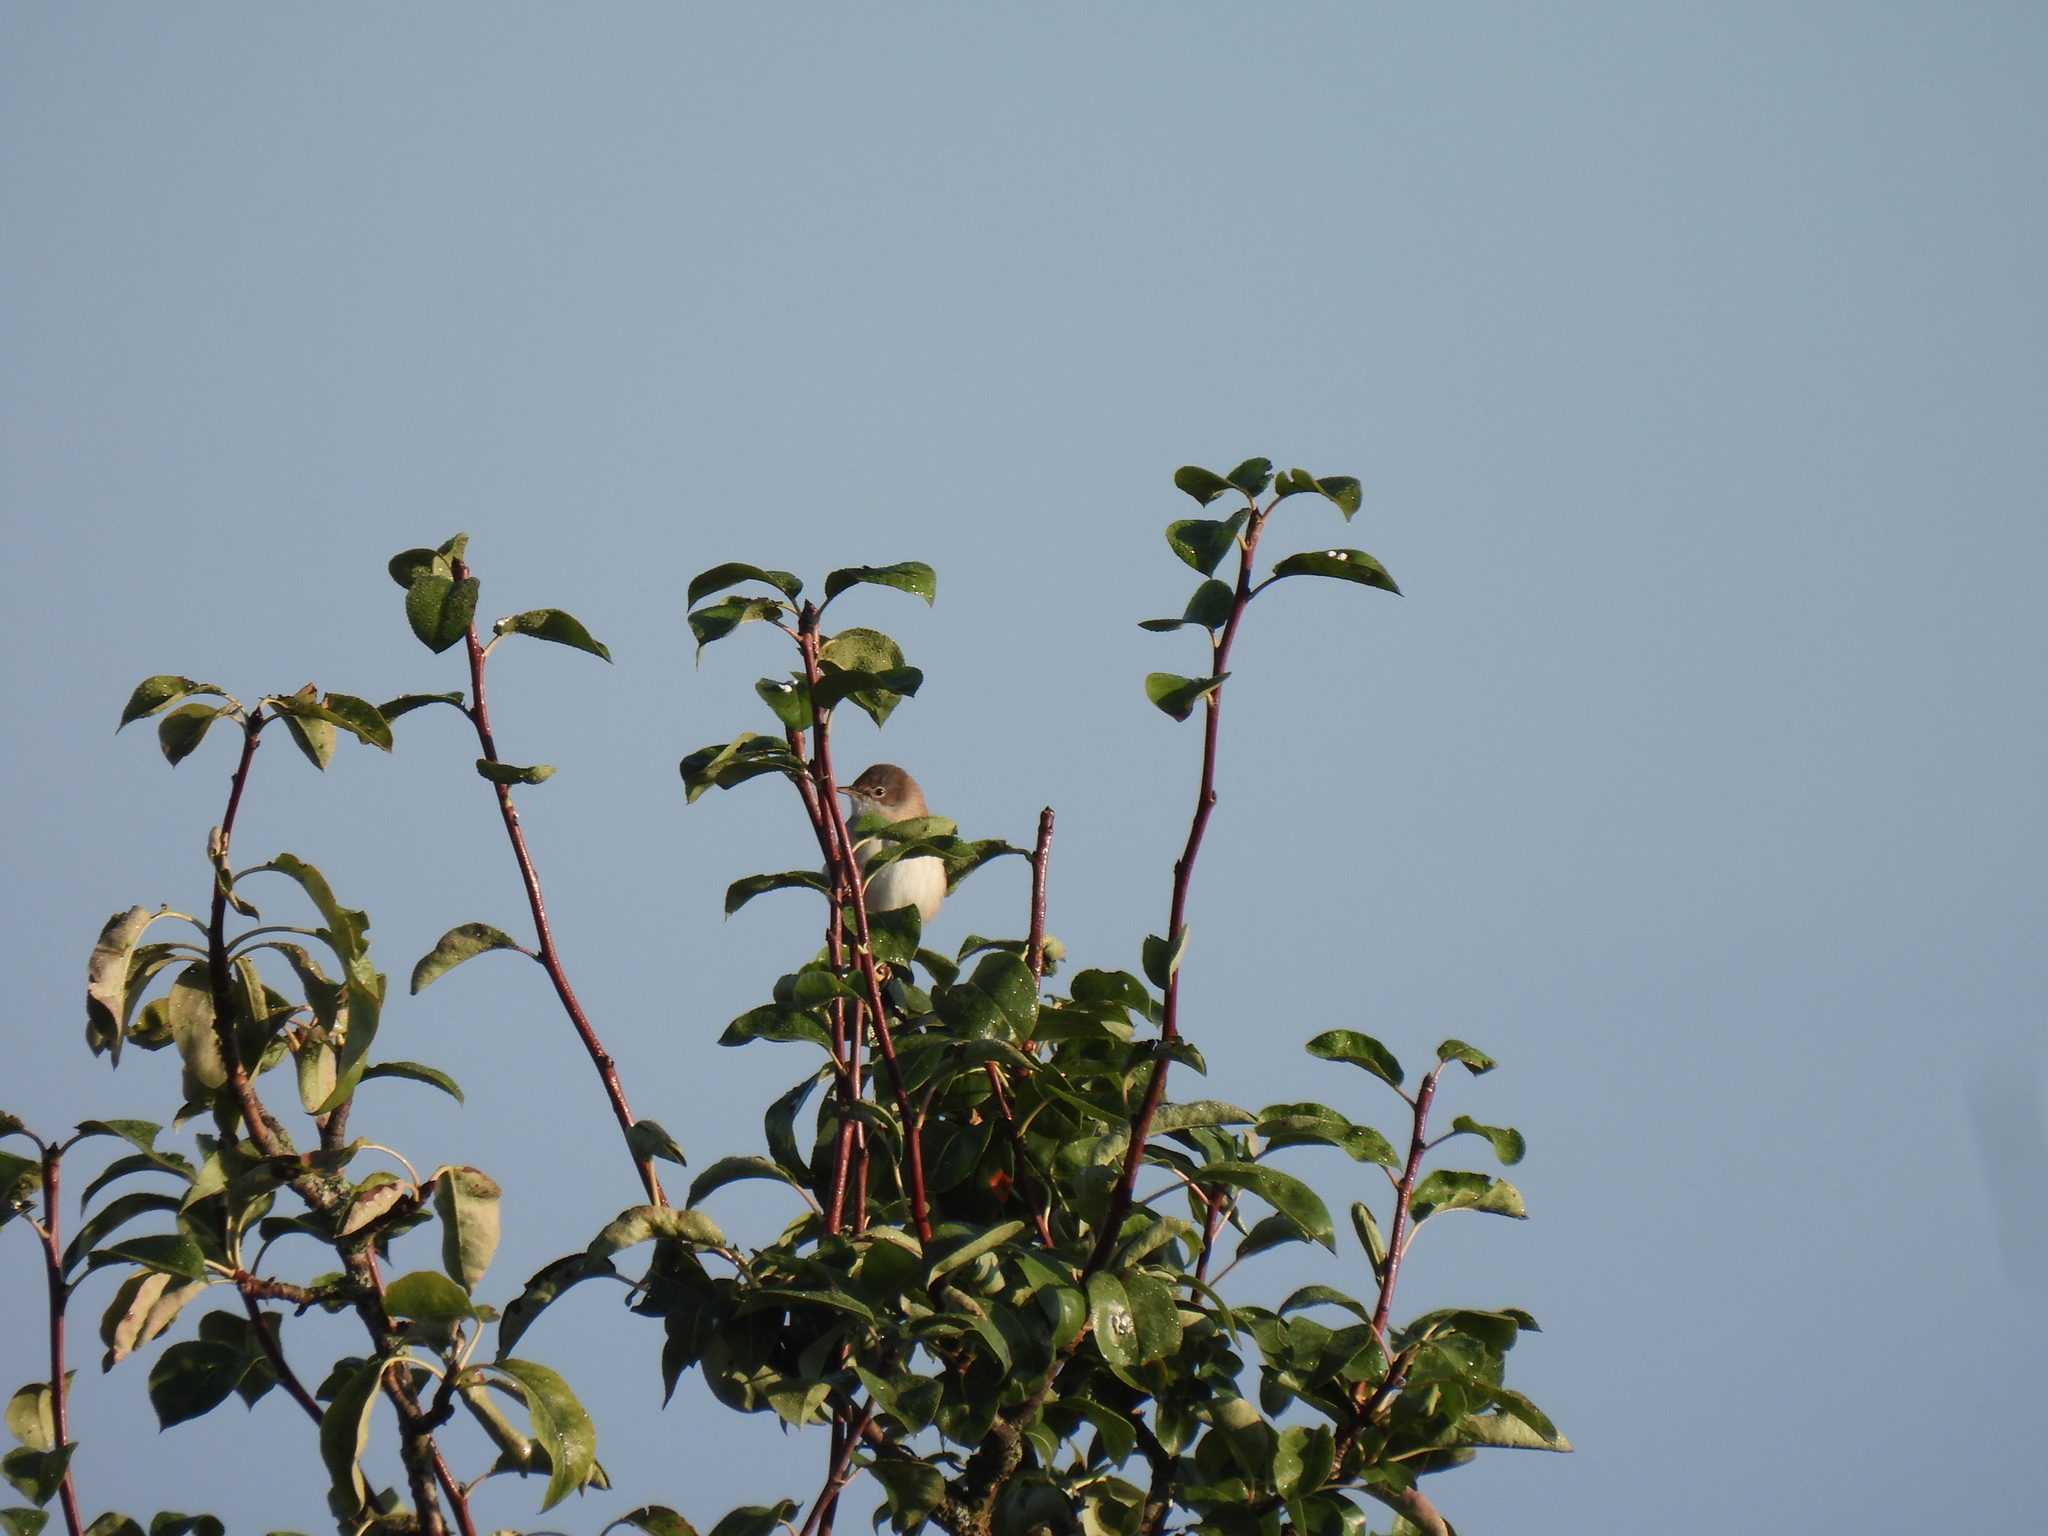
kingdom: Animalia
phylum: Chordata
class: Aves
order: Passeriformes
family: Sylviidae
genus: Sylvia
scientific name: Sylvia communis
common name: Common whitethroat
